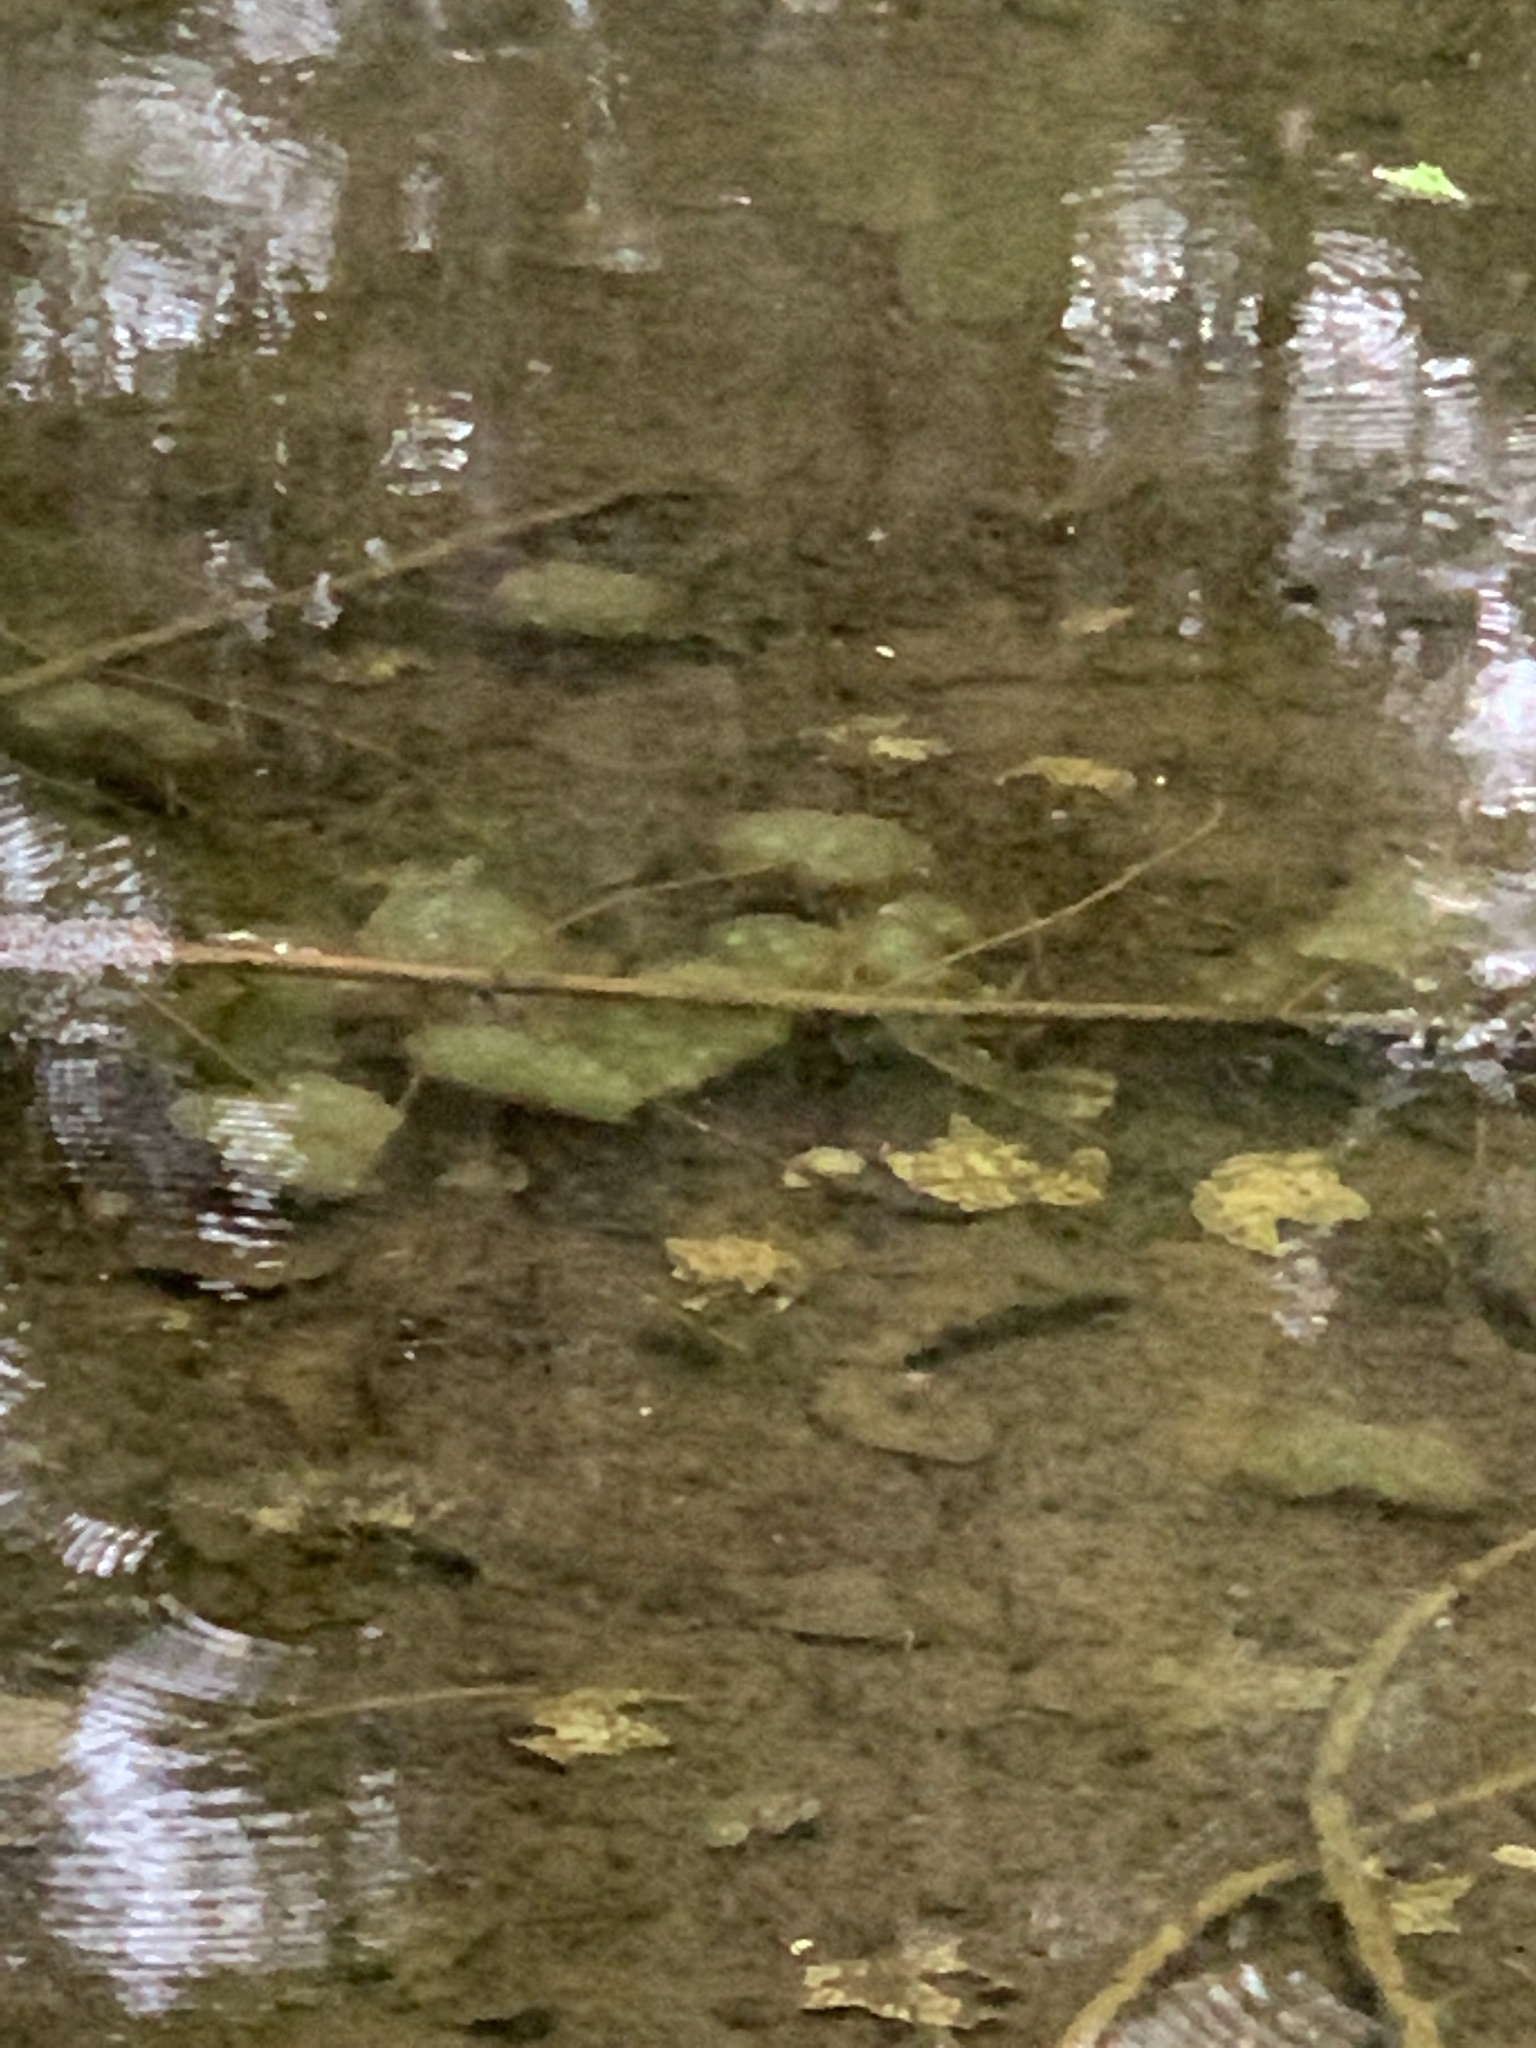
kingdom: Animalia
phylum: Chordata
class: Amphibia
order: Caudata
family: Ambystomatidae
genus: Ambystoma
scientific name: Ambystoma maculatum
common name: Spotted salamander
